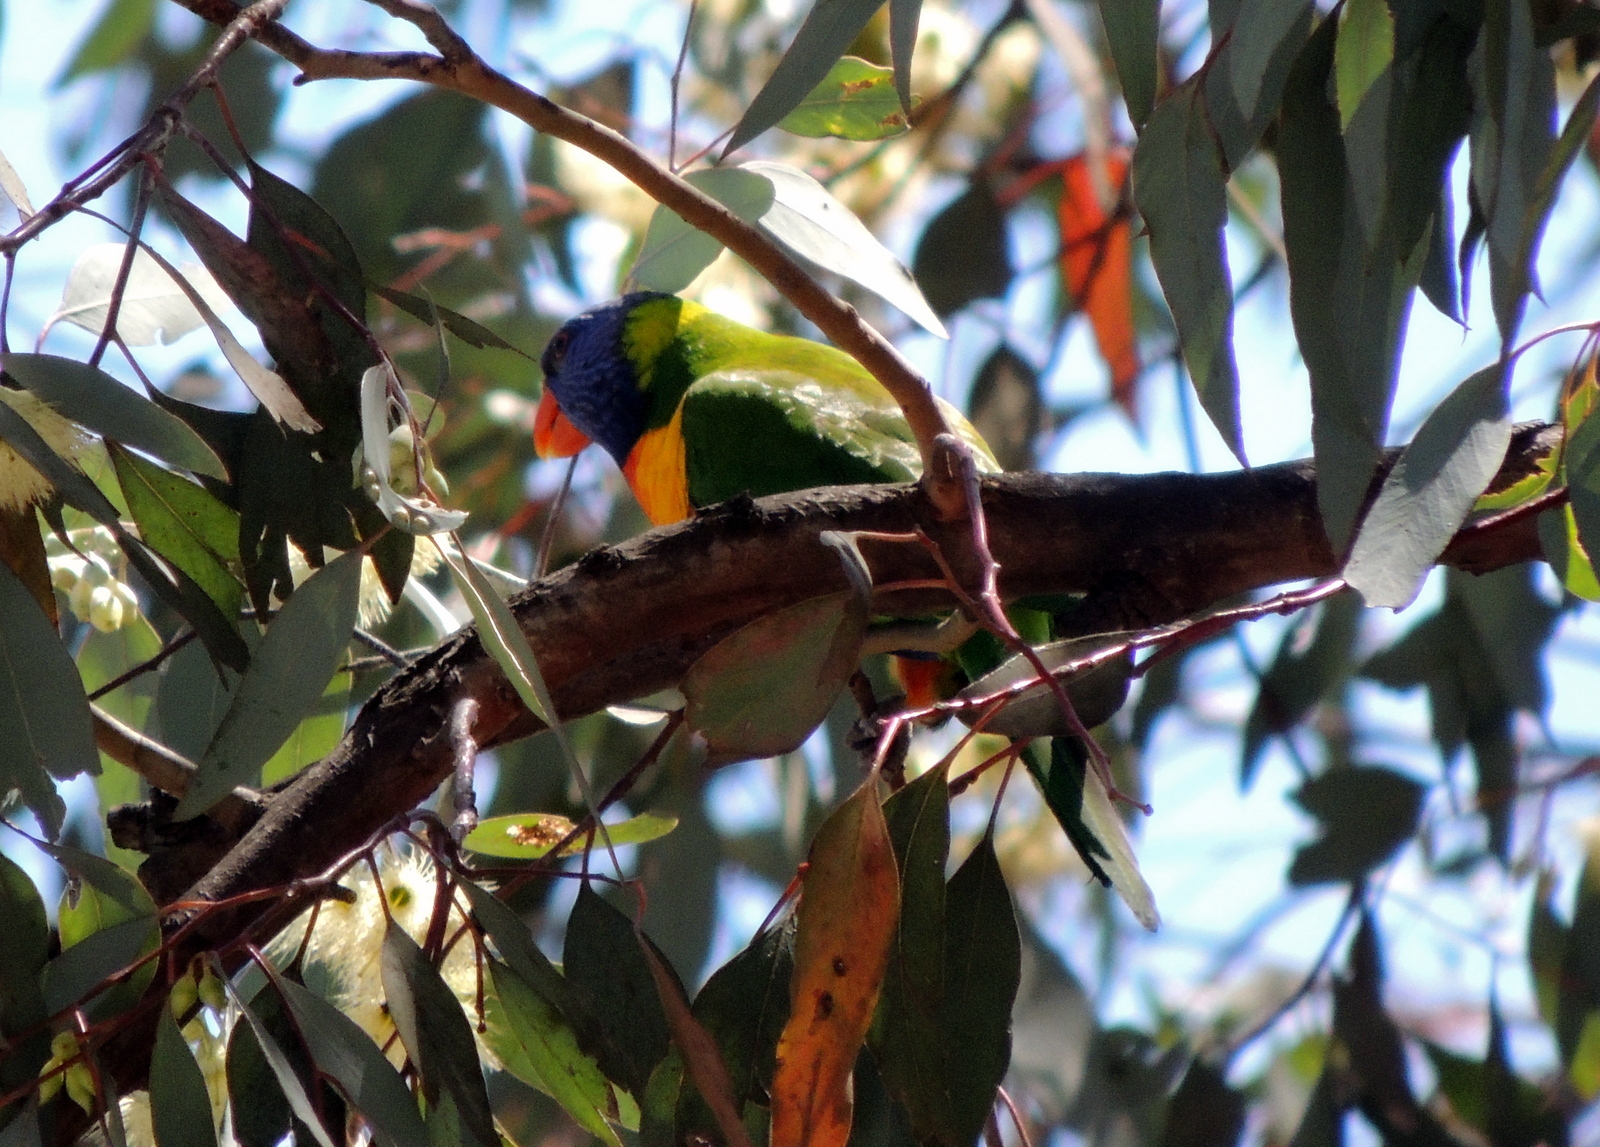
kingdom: Animalia
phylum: Chordata
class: Aves
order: Psittaciformes
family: Psittacidae
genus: Trichoglossus
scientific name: Trichoglossus haematodus
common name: Coconut lorikeet
